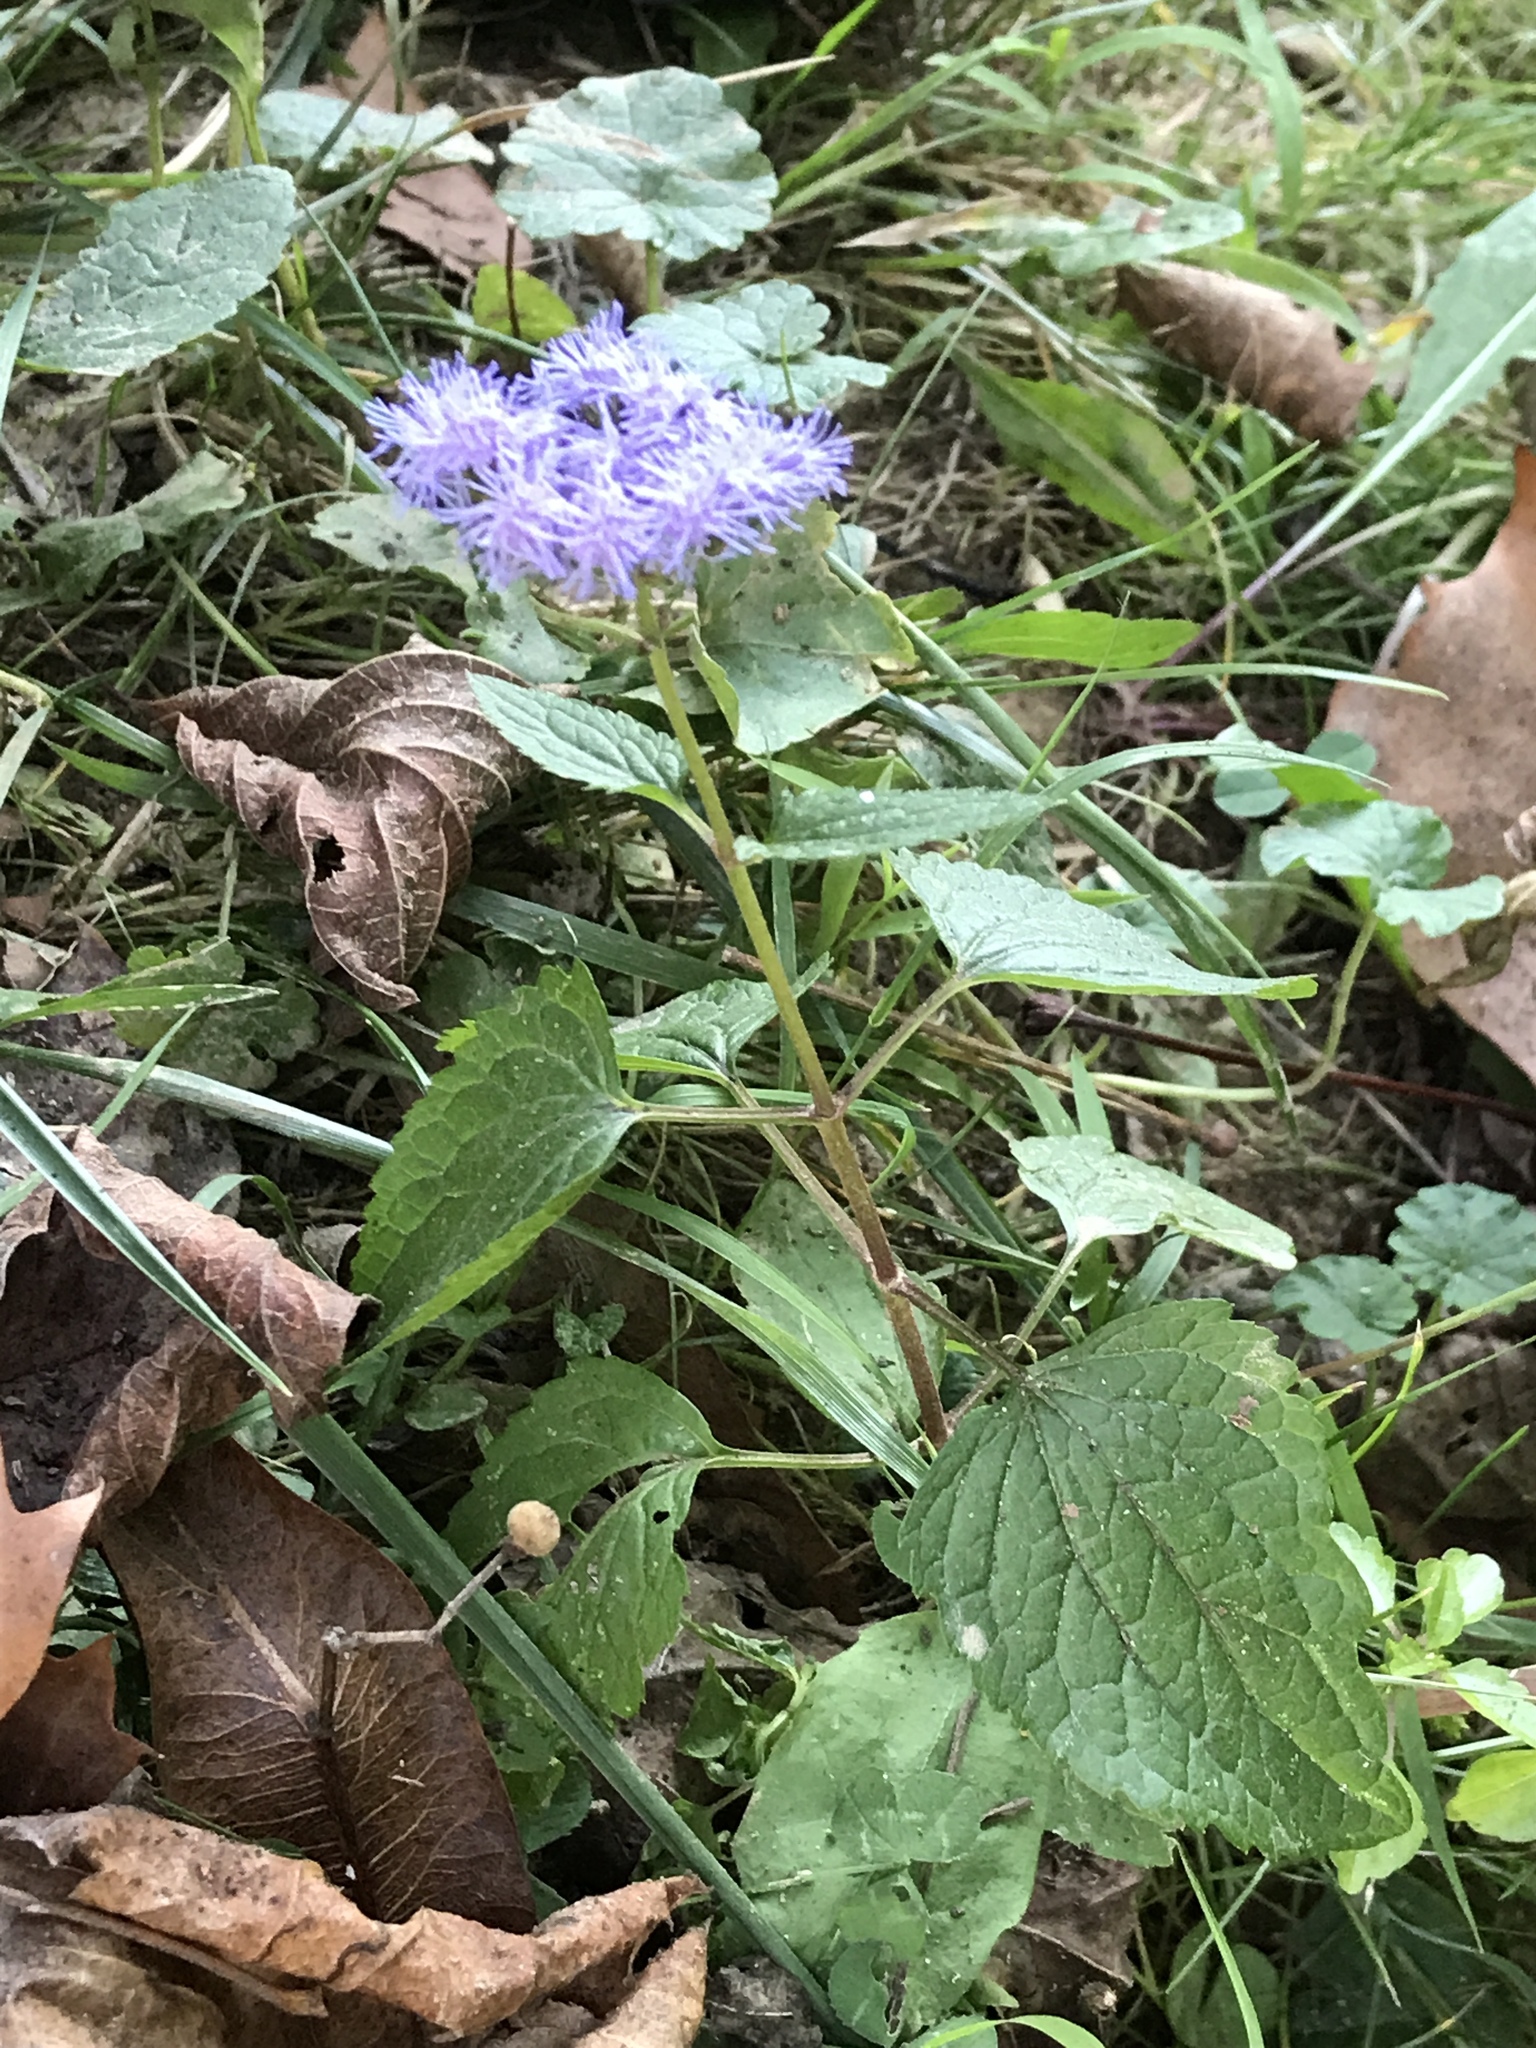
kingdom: Plantae
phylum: Tracheophyta
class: Magnoliopsida
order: Asterales
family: Asteraceae
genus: Conoclinium
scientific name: Conoclinium coelestinum
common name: Blue mistflower
